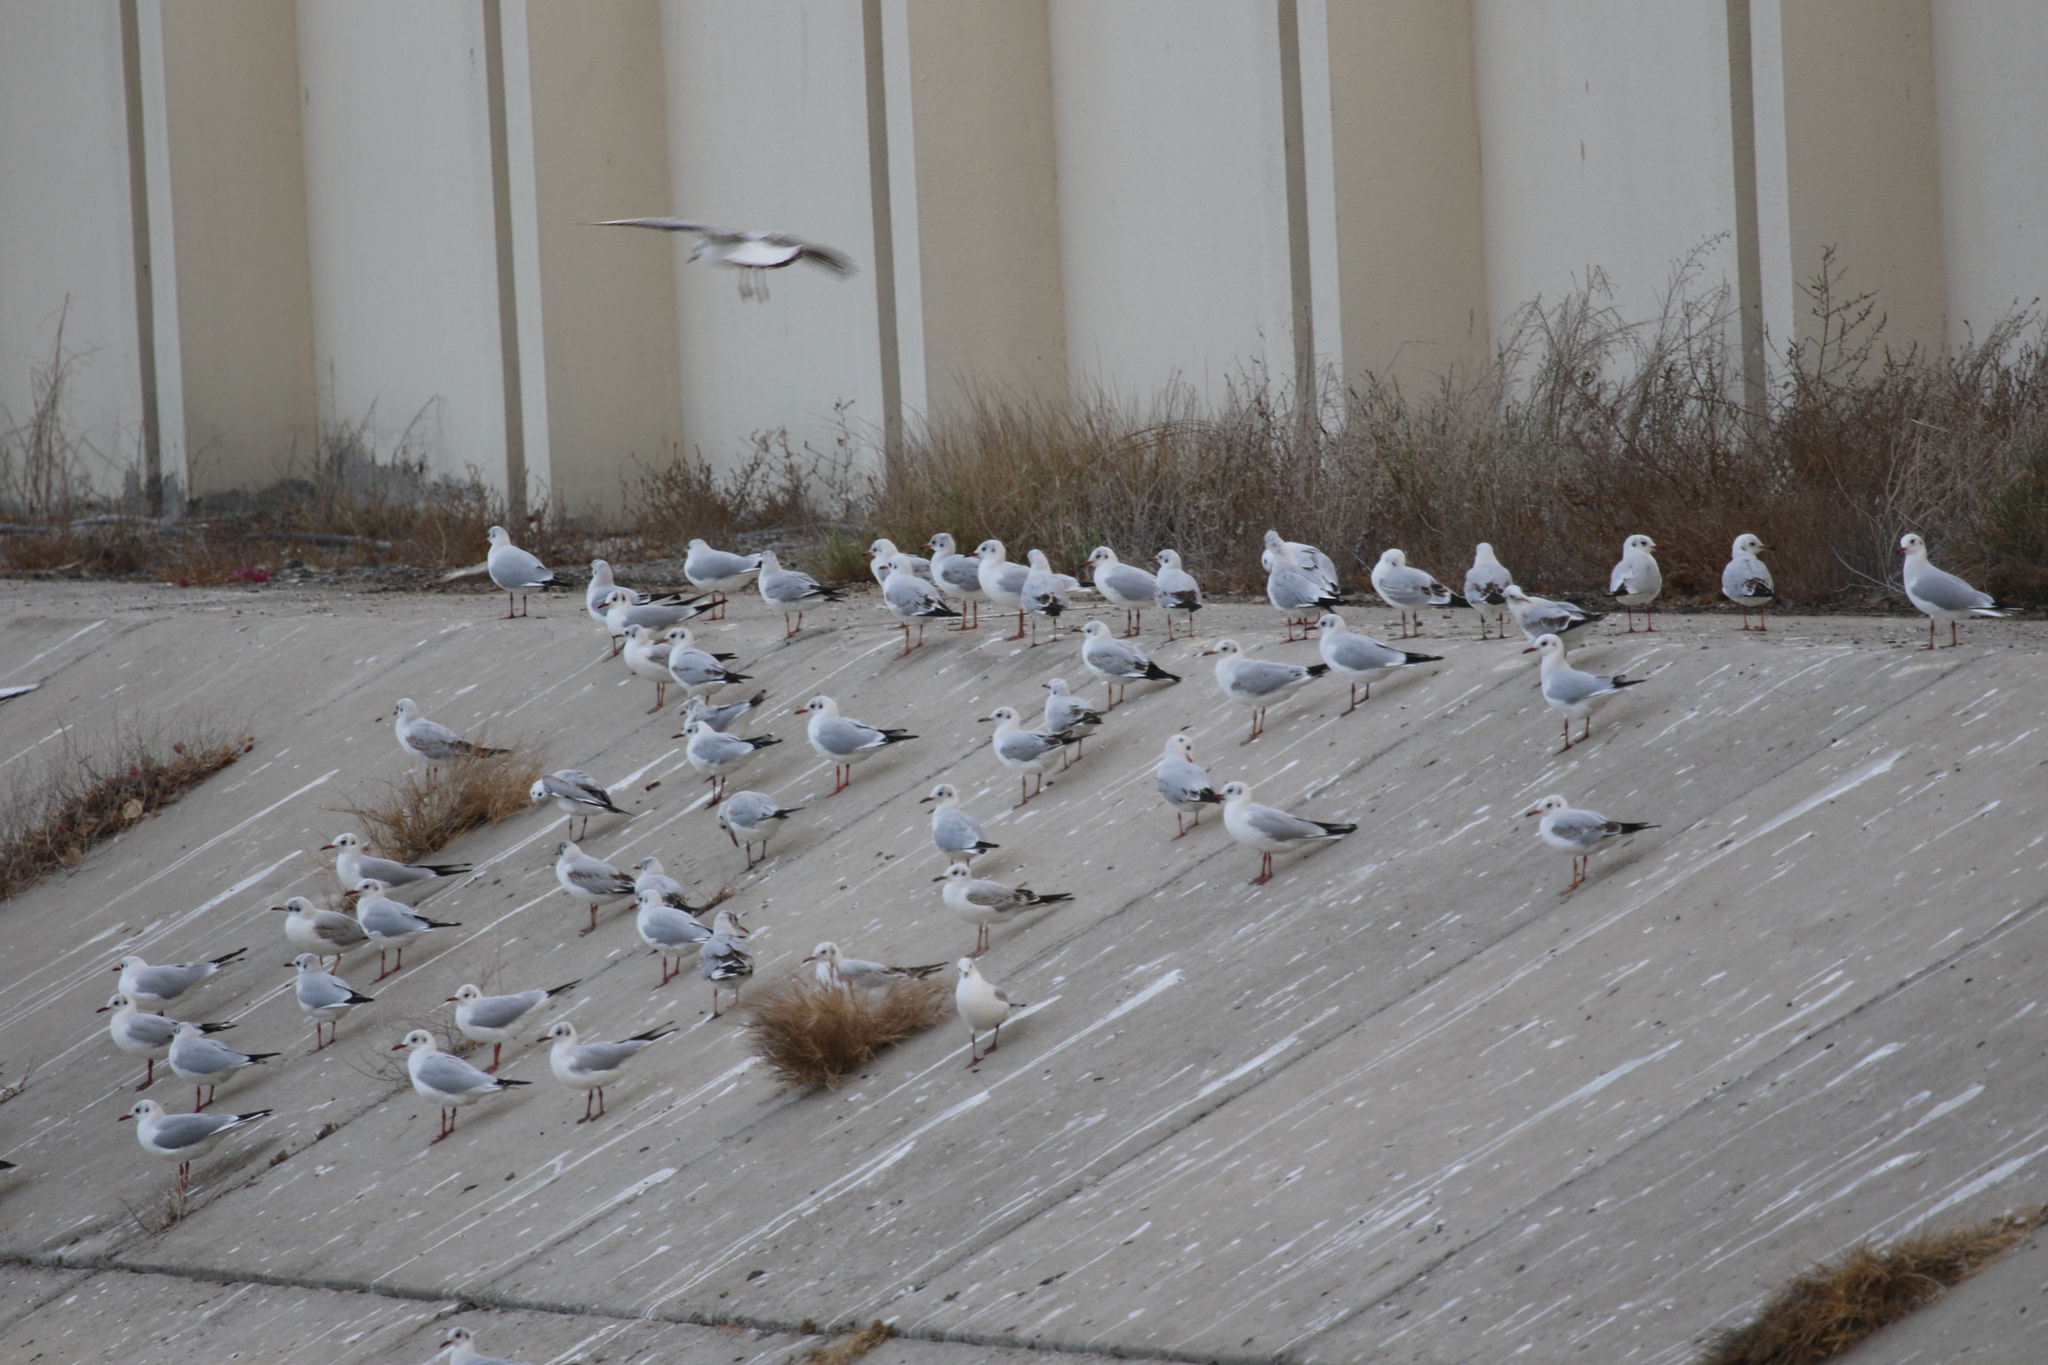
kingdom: Animalia
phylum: Chordata
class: Aves
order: Charadriiformes
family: Laridae
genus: Chroicocephalus
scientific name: Chroicocephalus ridibundus
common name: Black-headed gull
